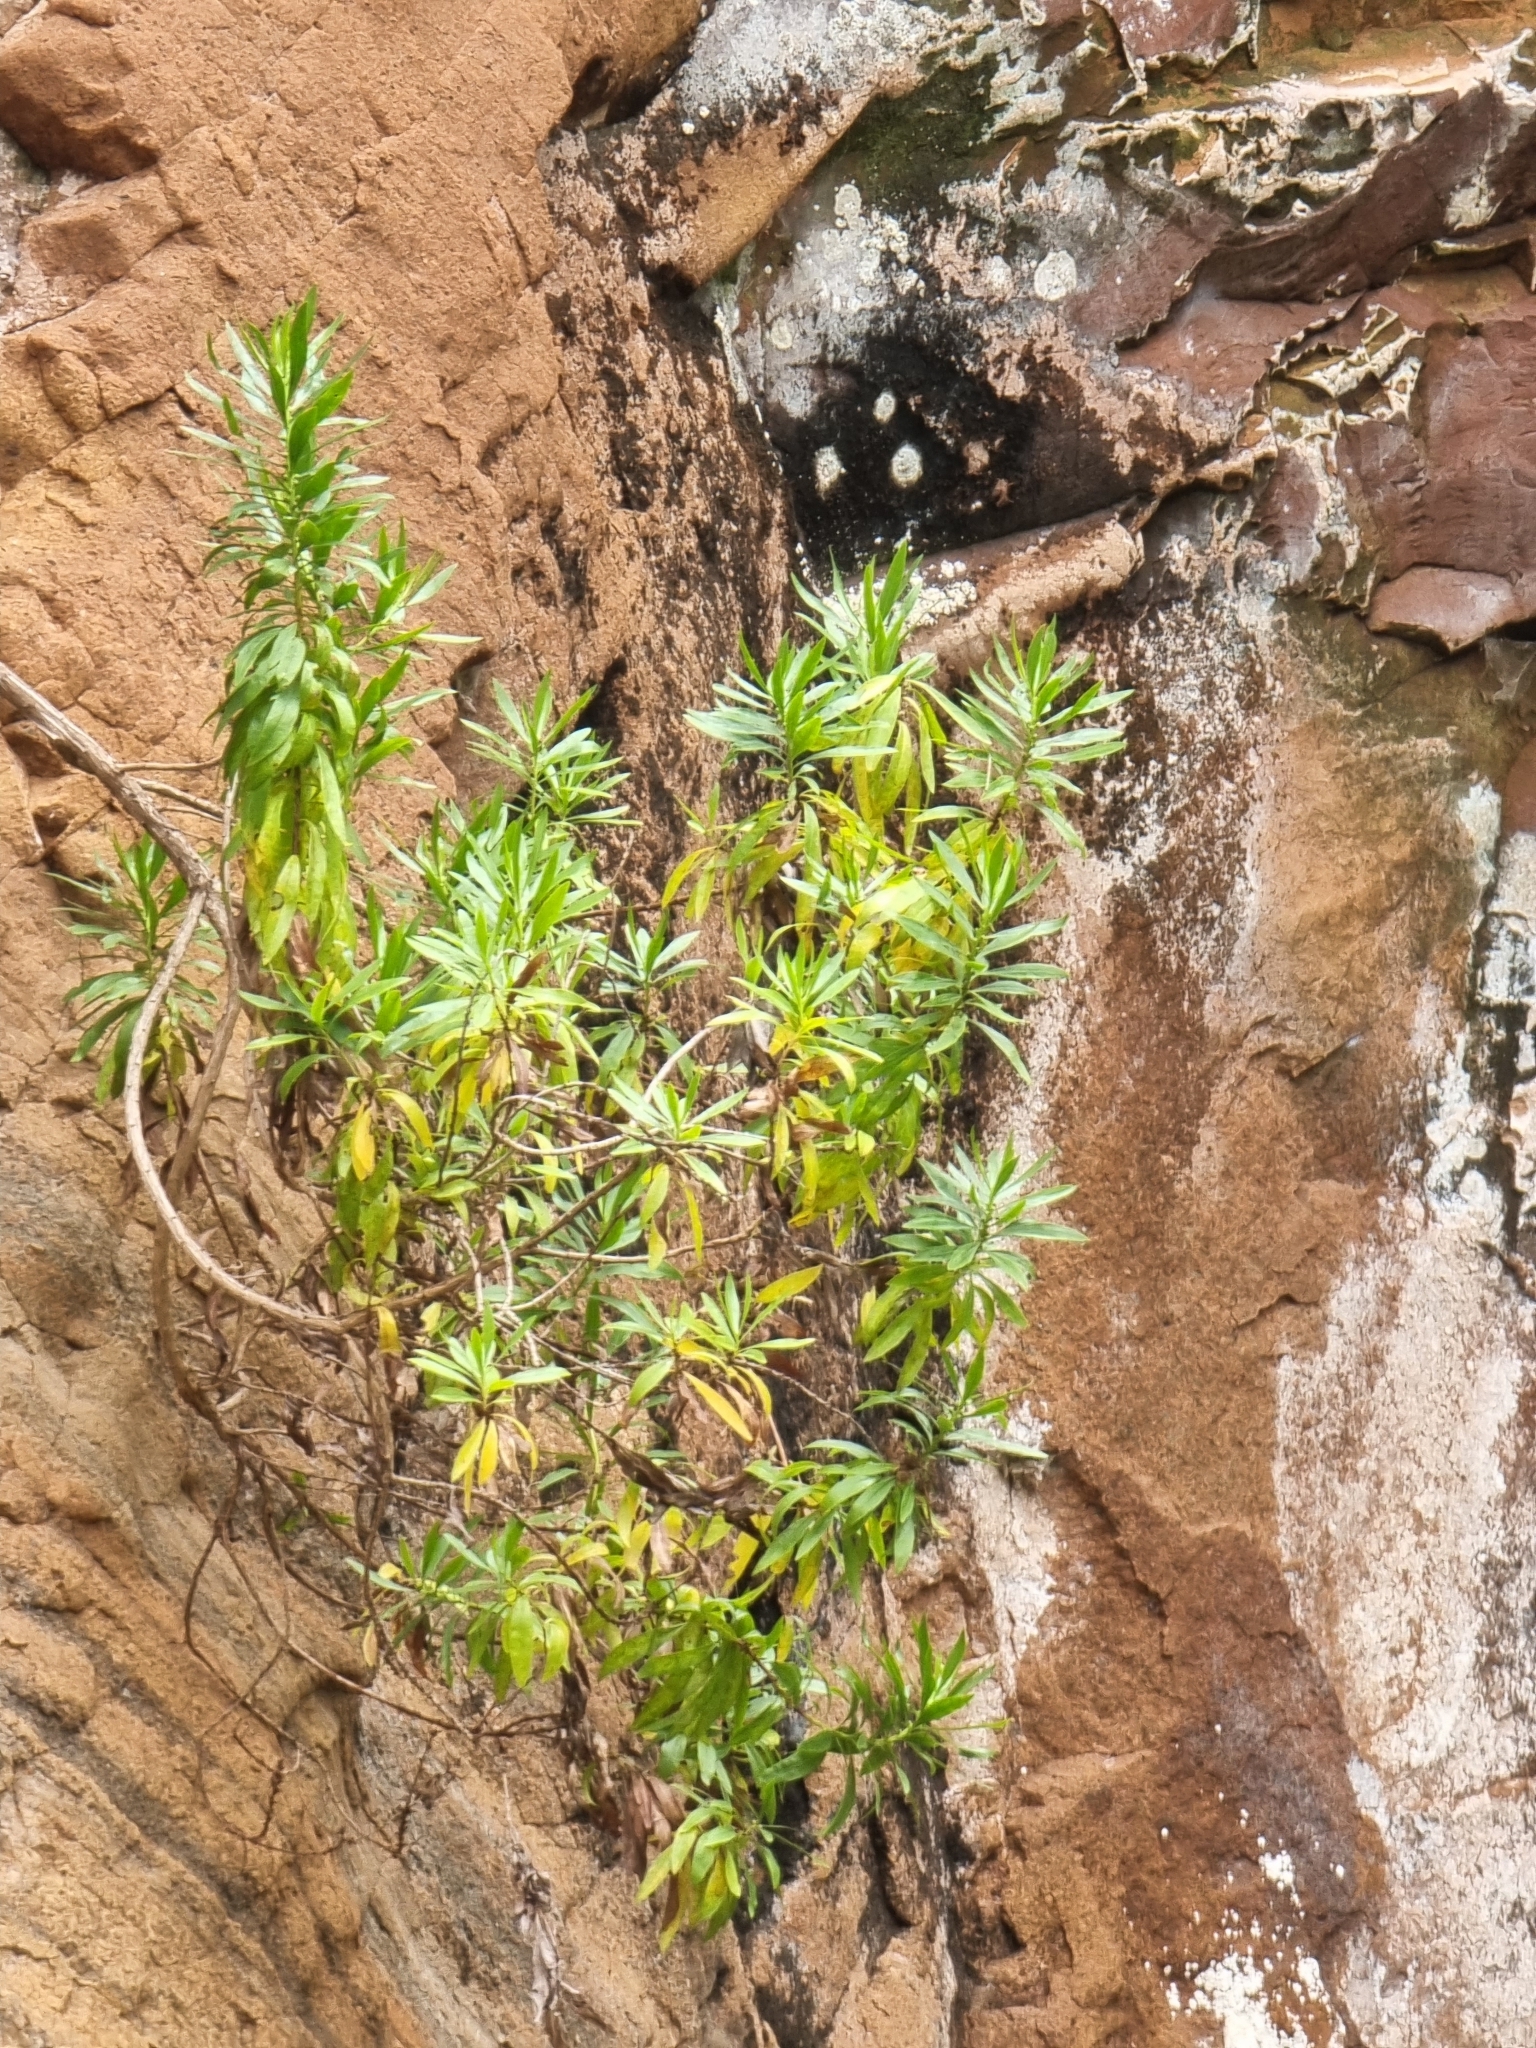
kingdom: Plantae
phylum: Tracheophyta
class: Magnoliopsida
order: Lamiales
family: Plantaginaceae
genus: Globularia
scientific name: Globularia salicina
